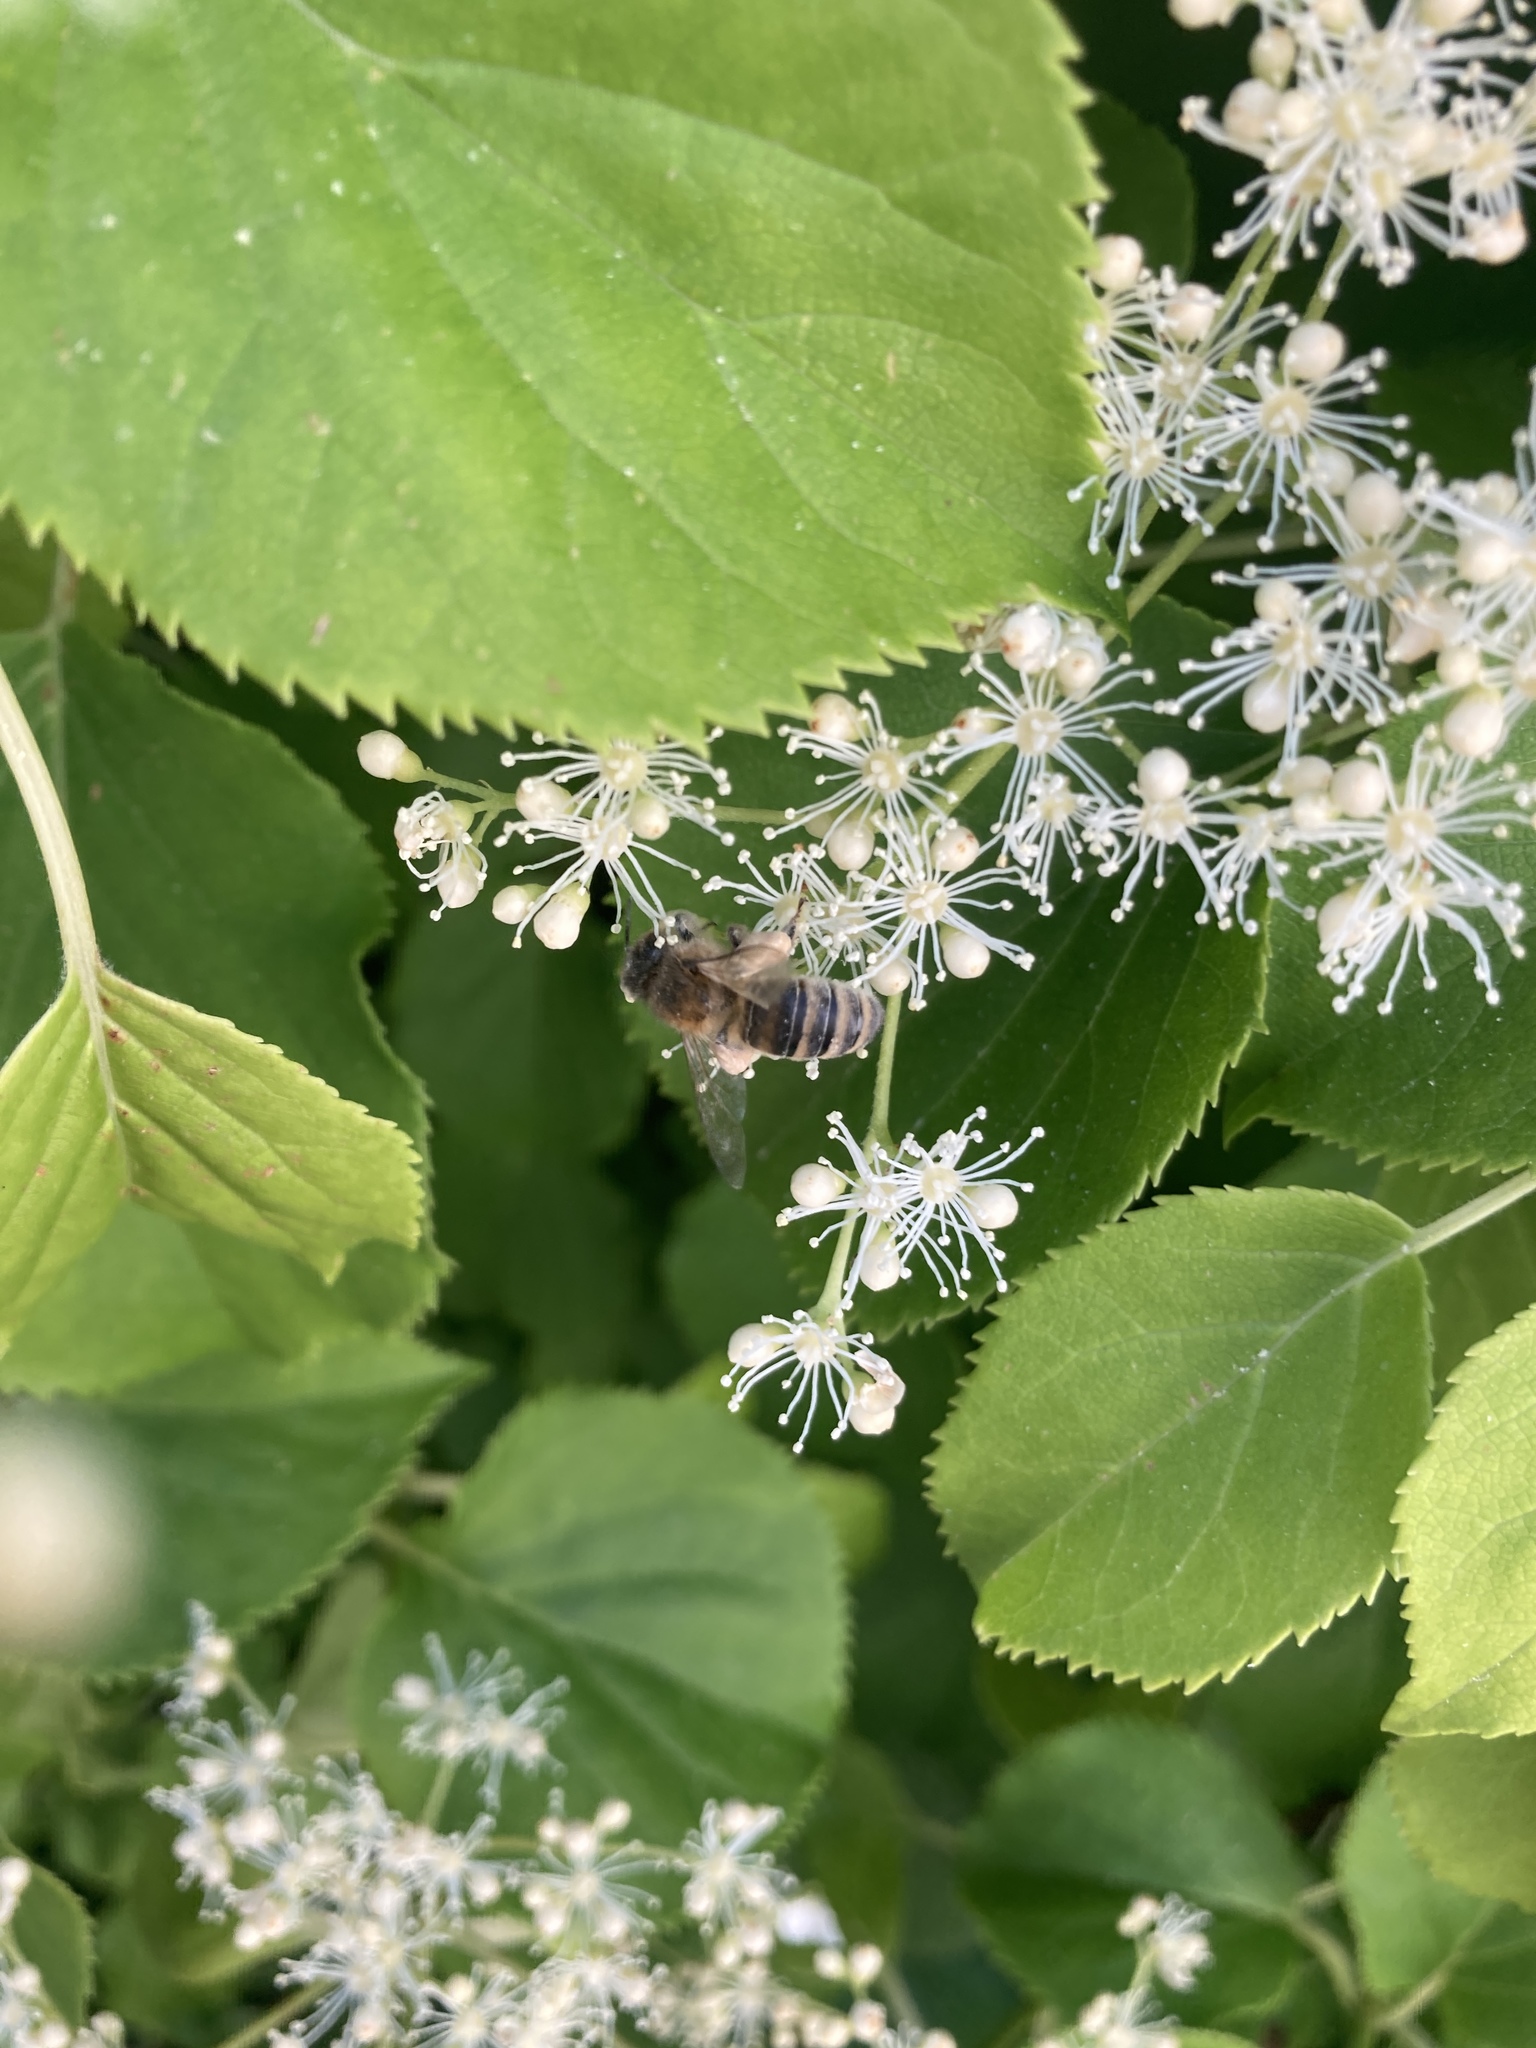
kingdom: Animalia
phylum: Arthropoda
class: Insecta
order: Hymenoptera
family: Apidae
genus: Apis
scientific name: Apis mellifera
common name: Honey bee
